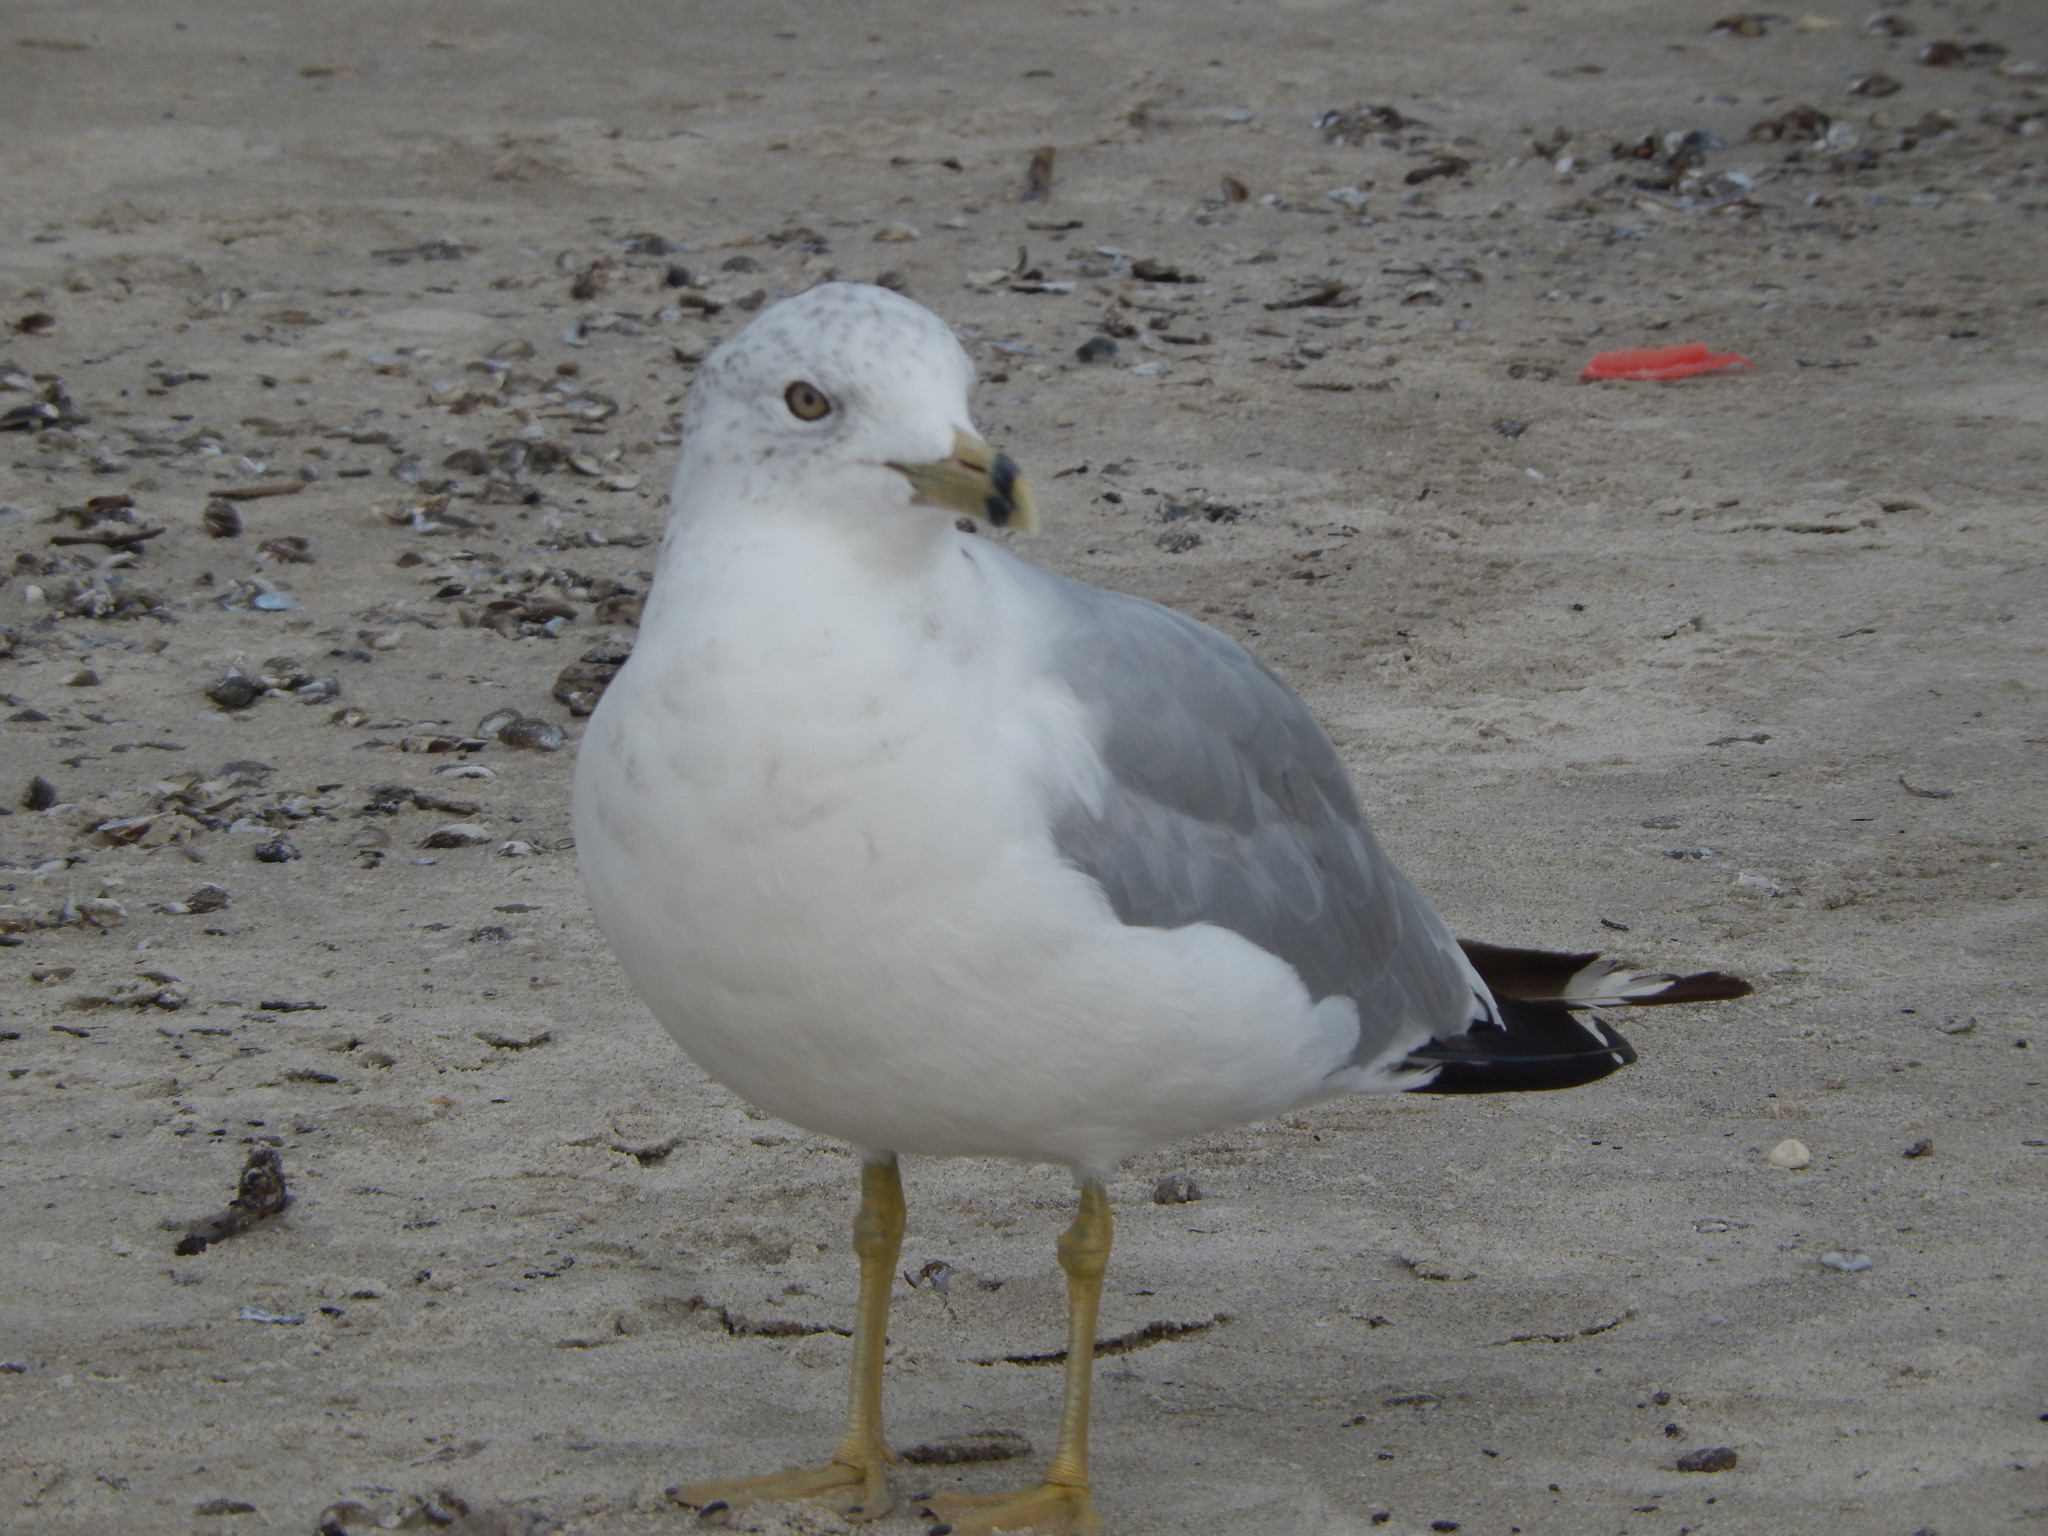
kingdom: Animalia
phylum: Chordata
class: Aves
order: Charadriiformes
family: Laridae
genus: Larus
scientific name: Larus delawarensis
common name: Ring-billed gull
